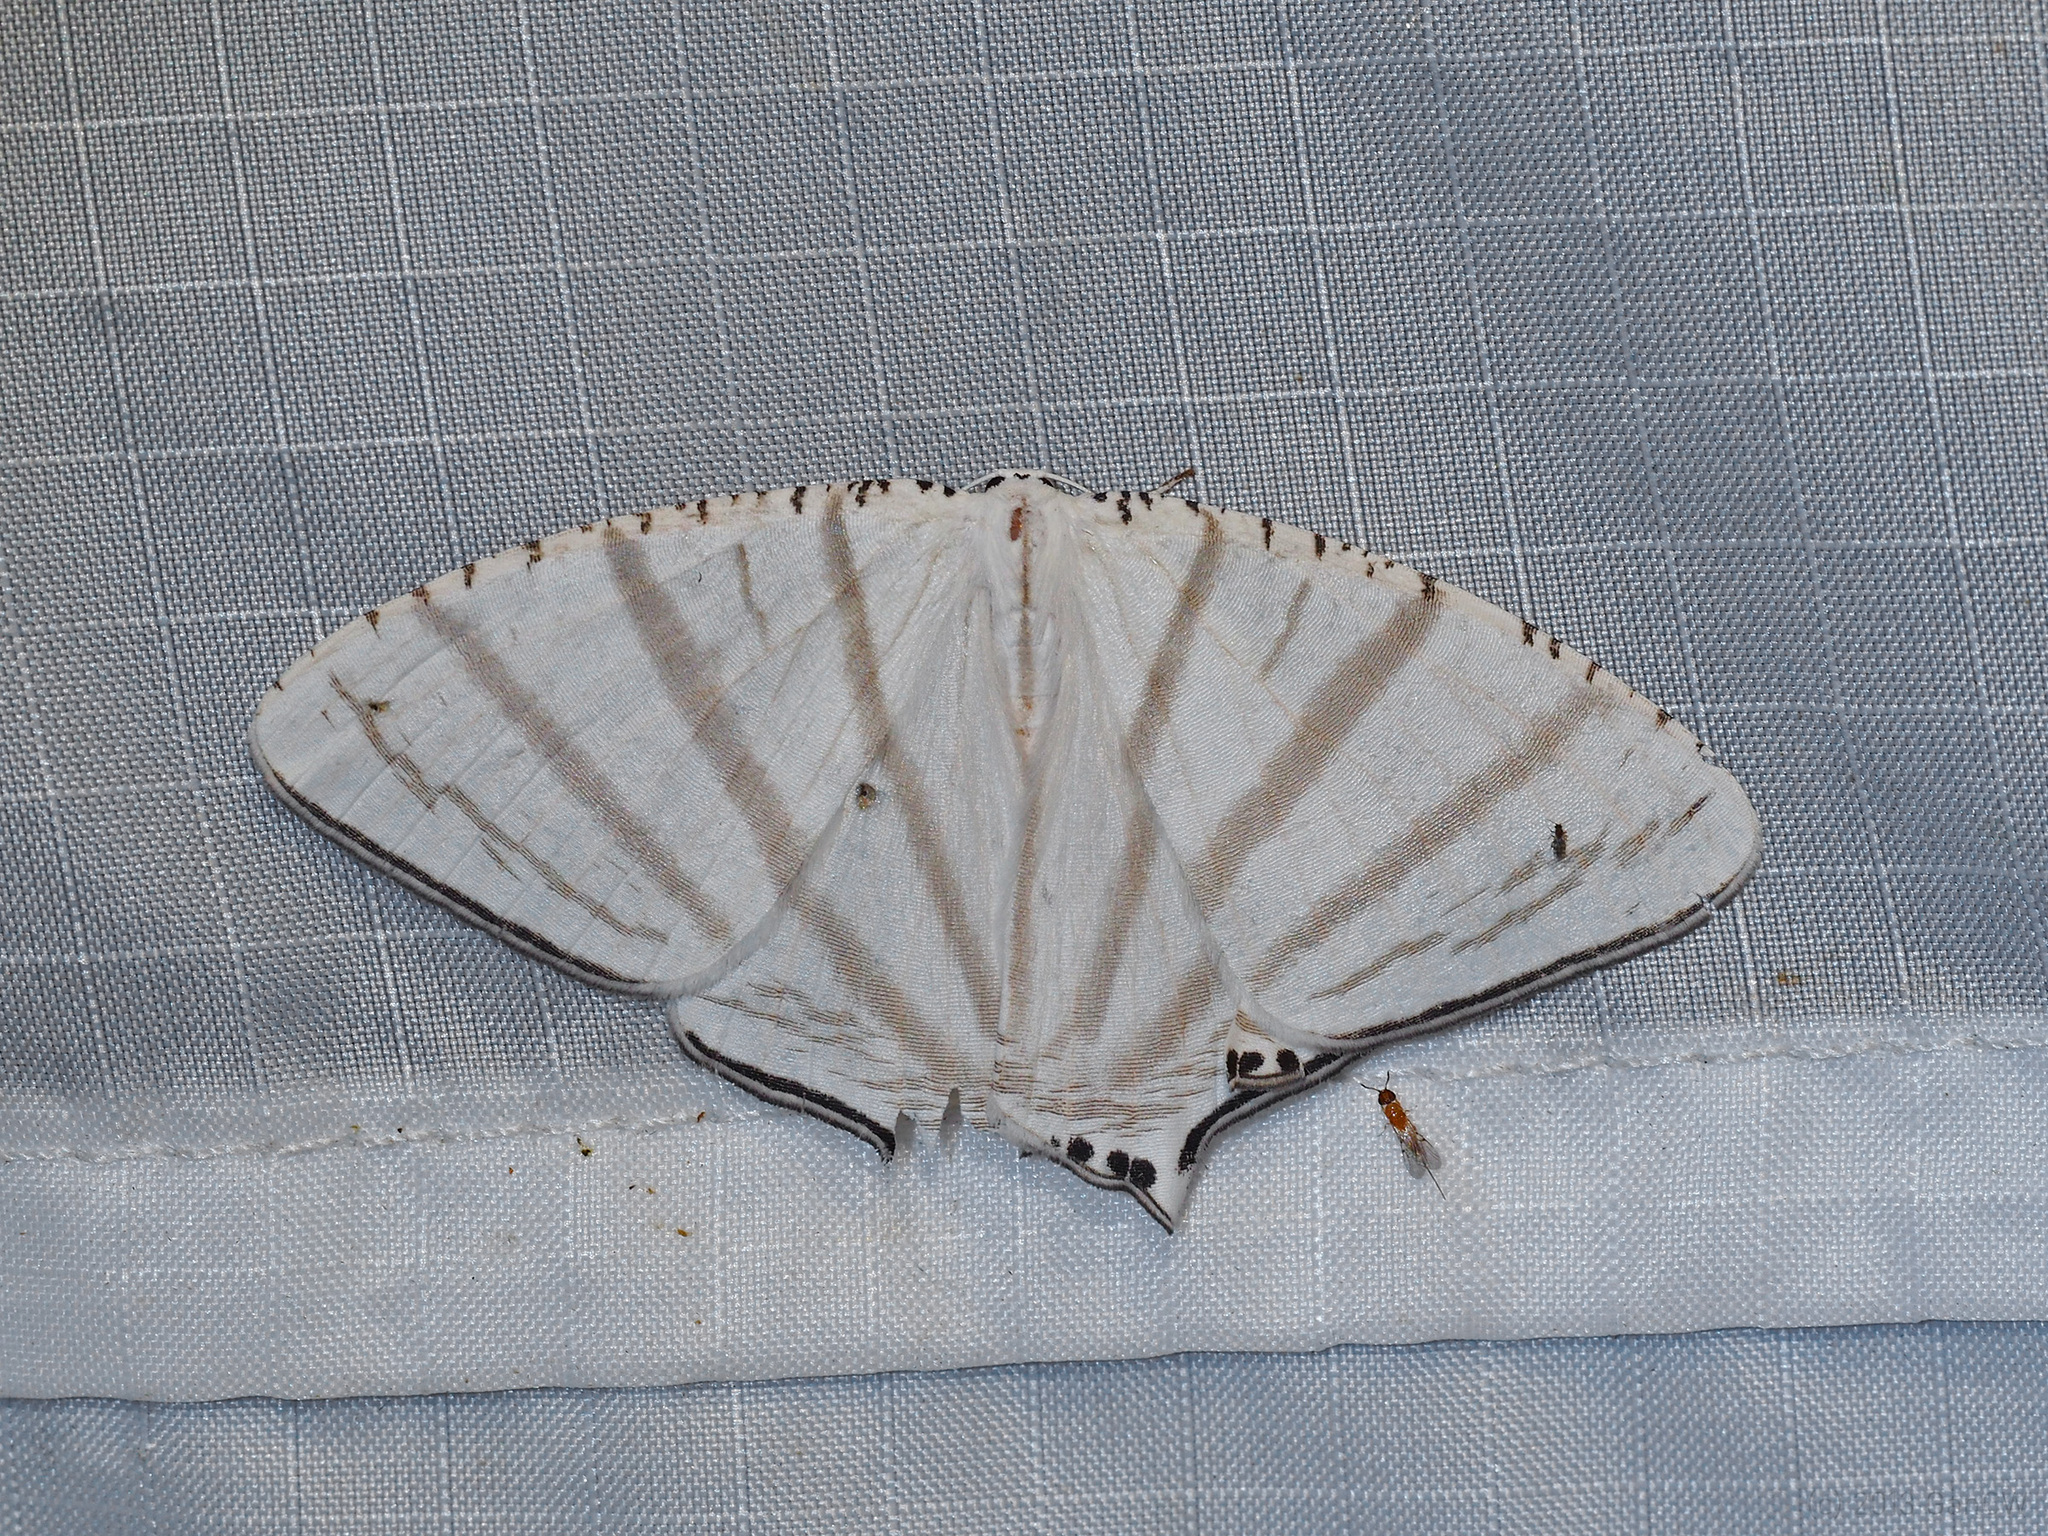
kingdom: Animalia
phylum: Arthropoda
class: Insecta
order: Lepidoptera
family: Uraniidae
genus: Urapteroides
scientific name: Urapteroides astheniata
